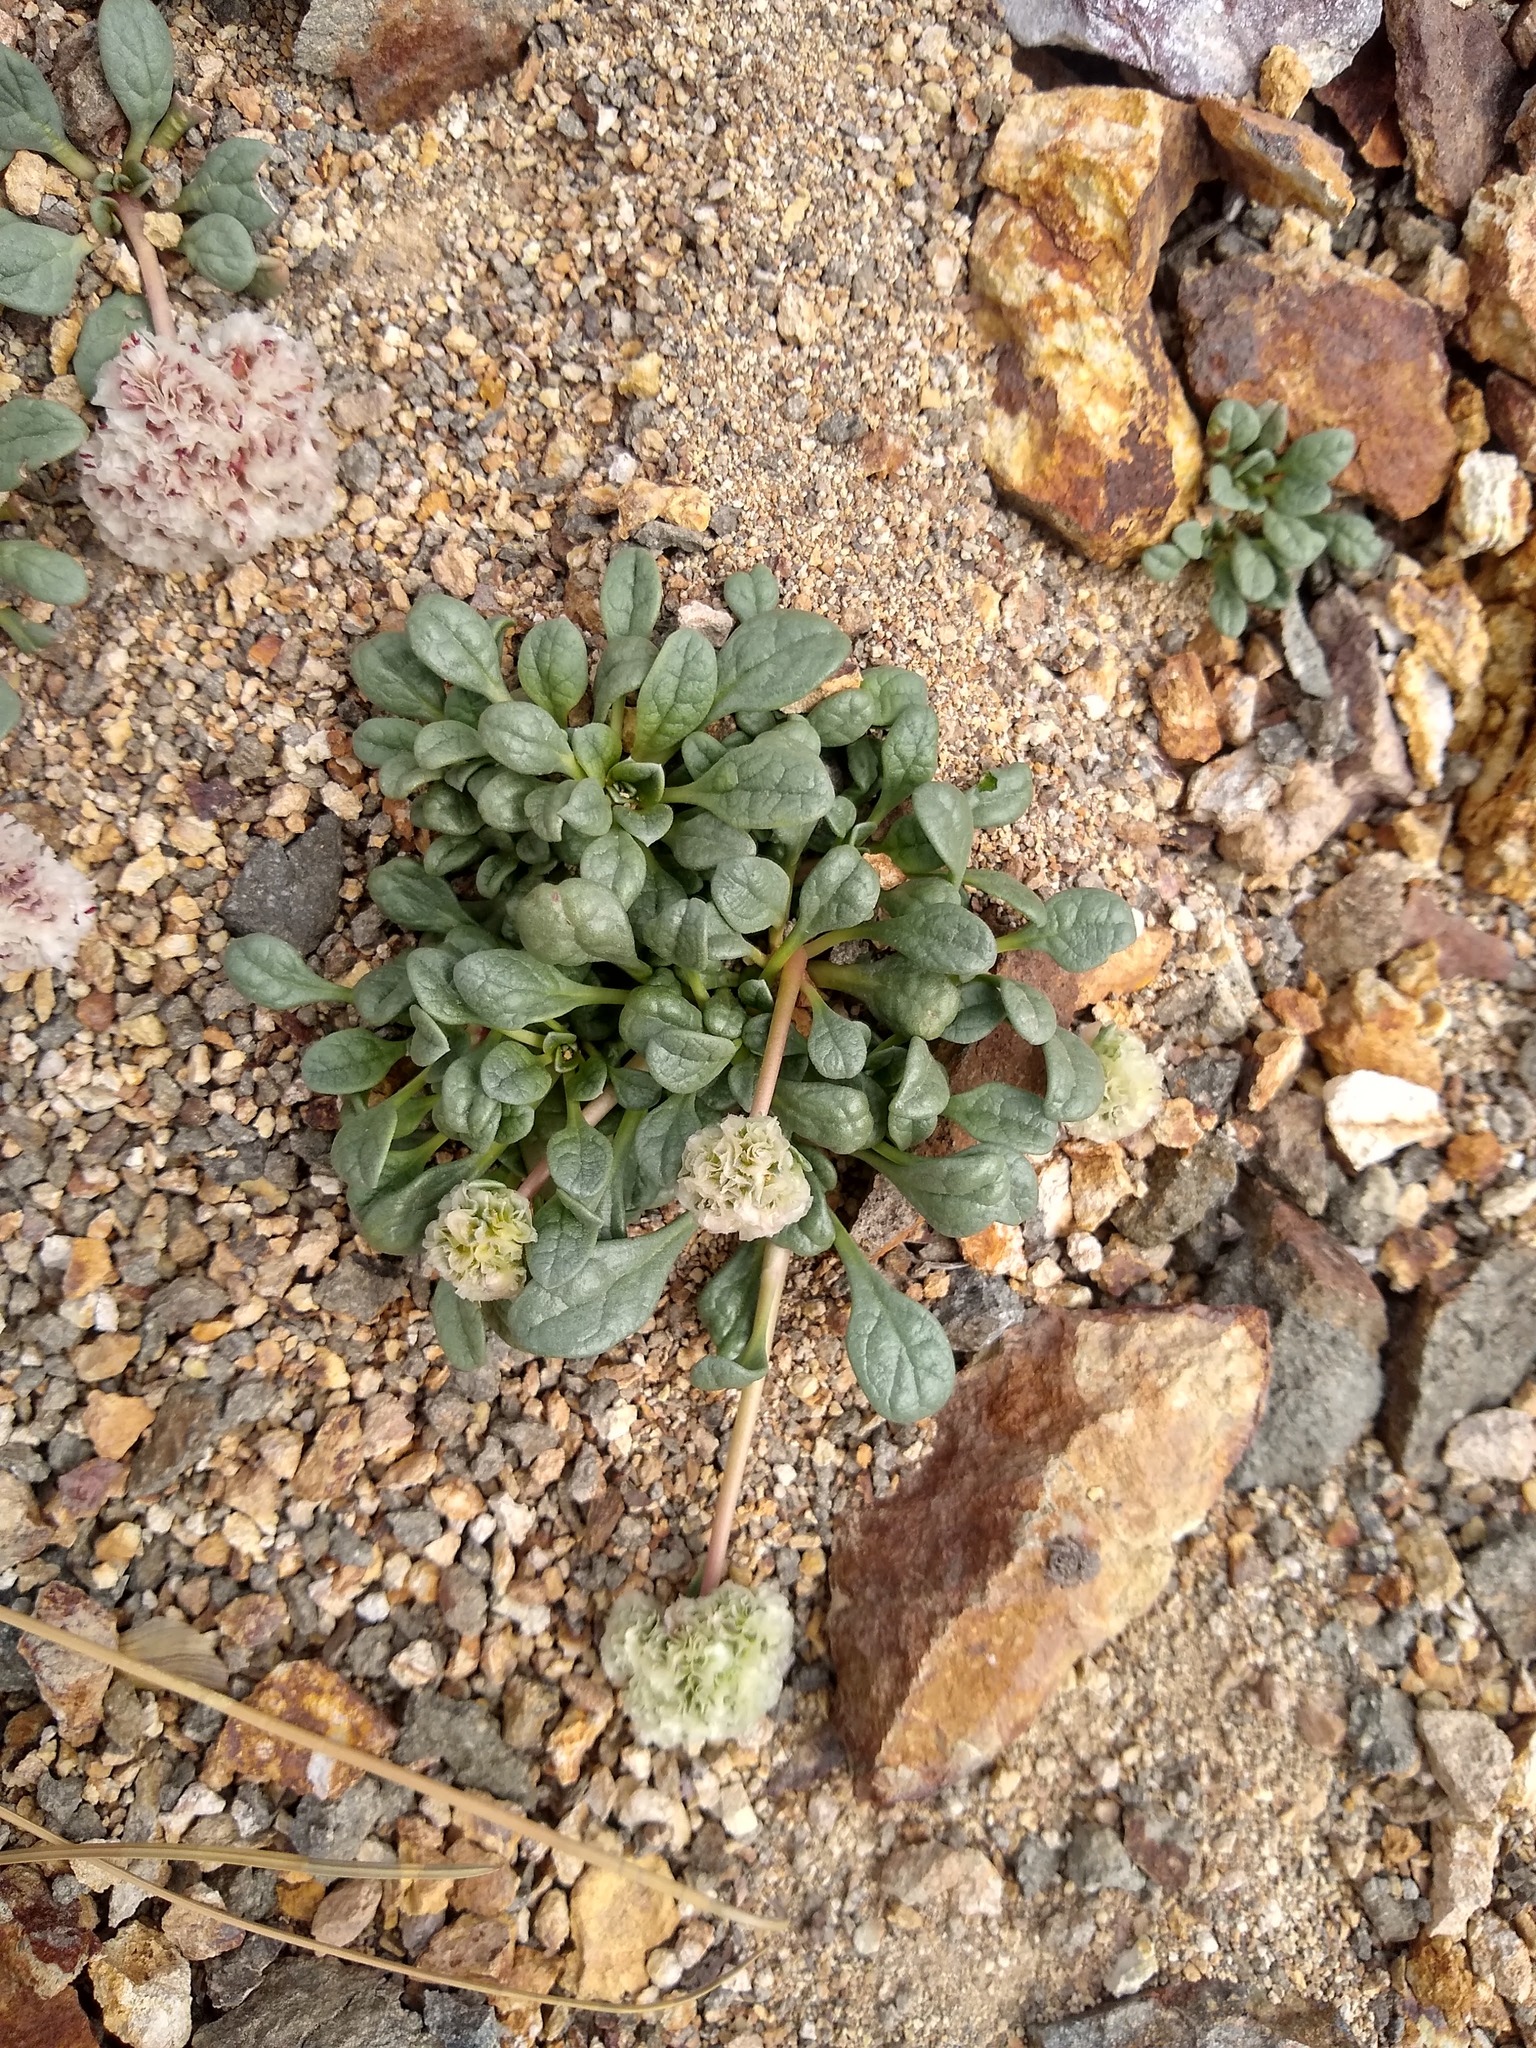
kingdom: Plantae
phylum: Tracheophyta
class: Magnoliopsida
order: Caryophyllales
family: Montiaceae
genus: Calyptridium
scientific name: Calyptridium umbellatum
